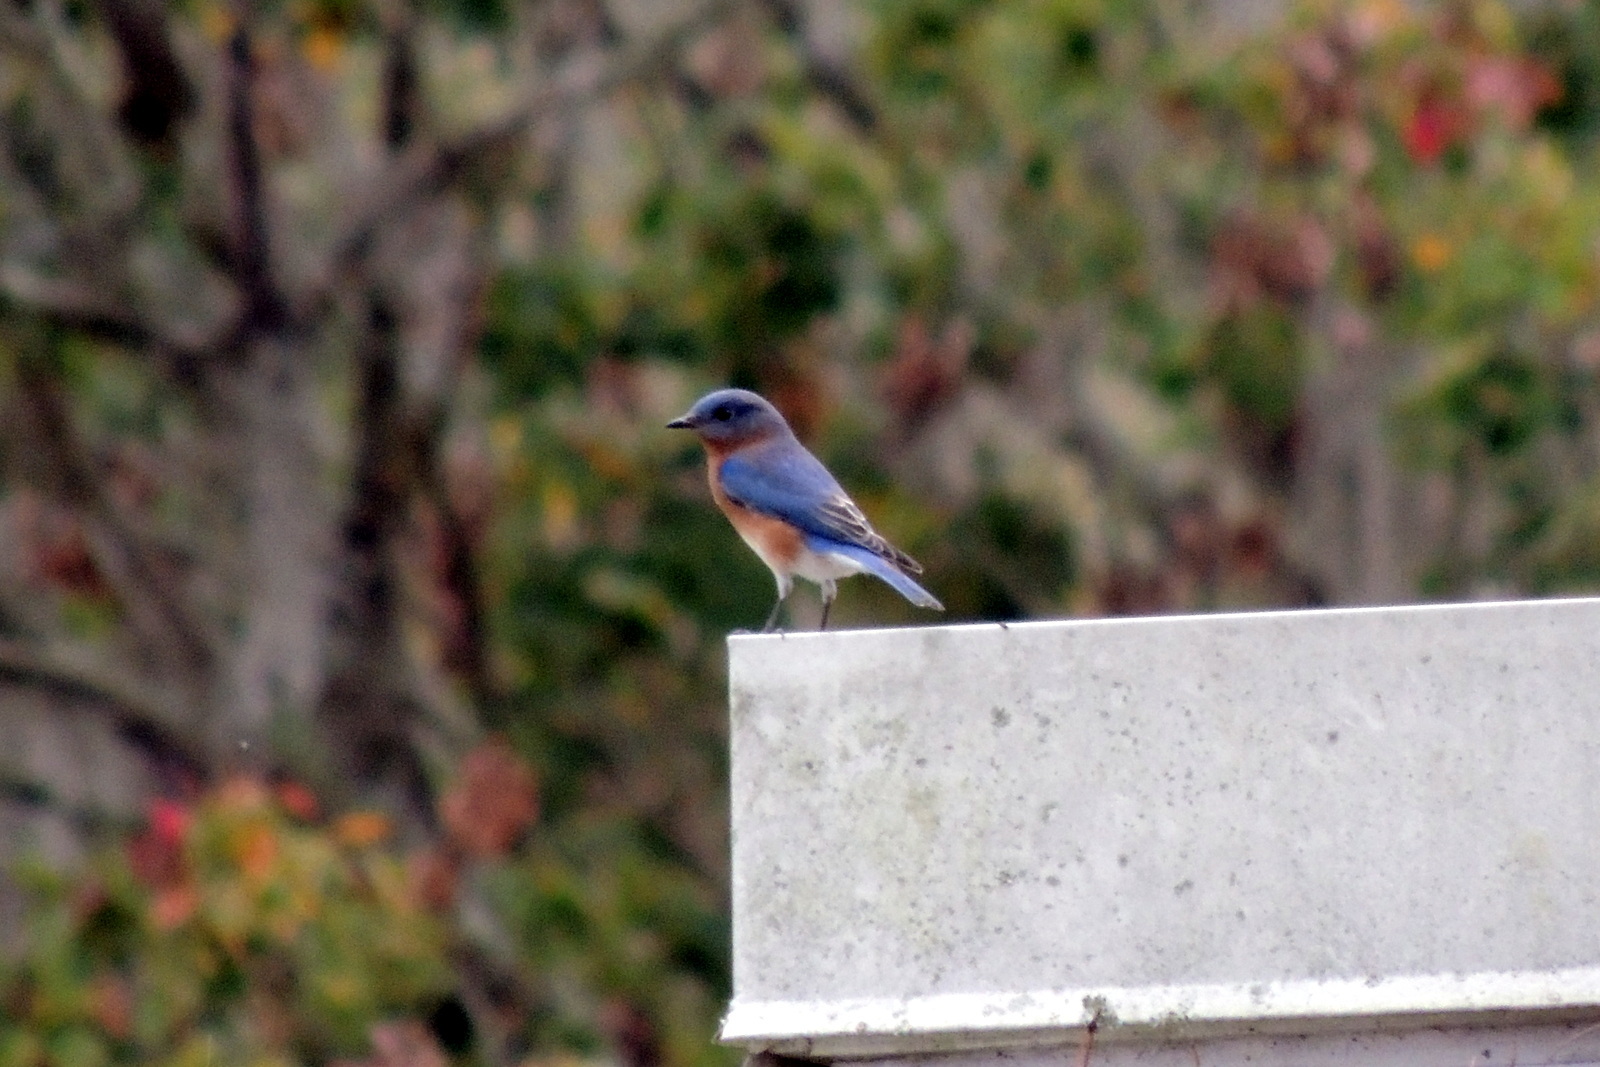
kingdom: Animalia
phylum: Chordata
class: Aves
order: Passeriformes
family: Turdidae
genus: Sialia
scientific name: Sialia sialis
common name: Eastern bluebird
